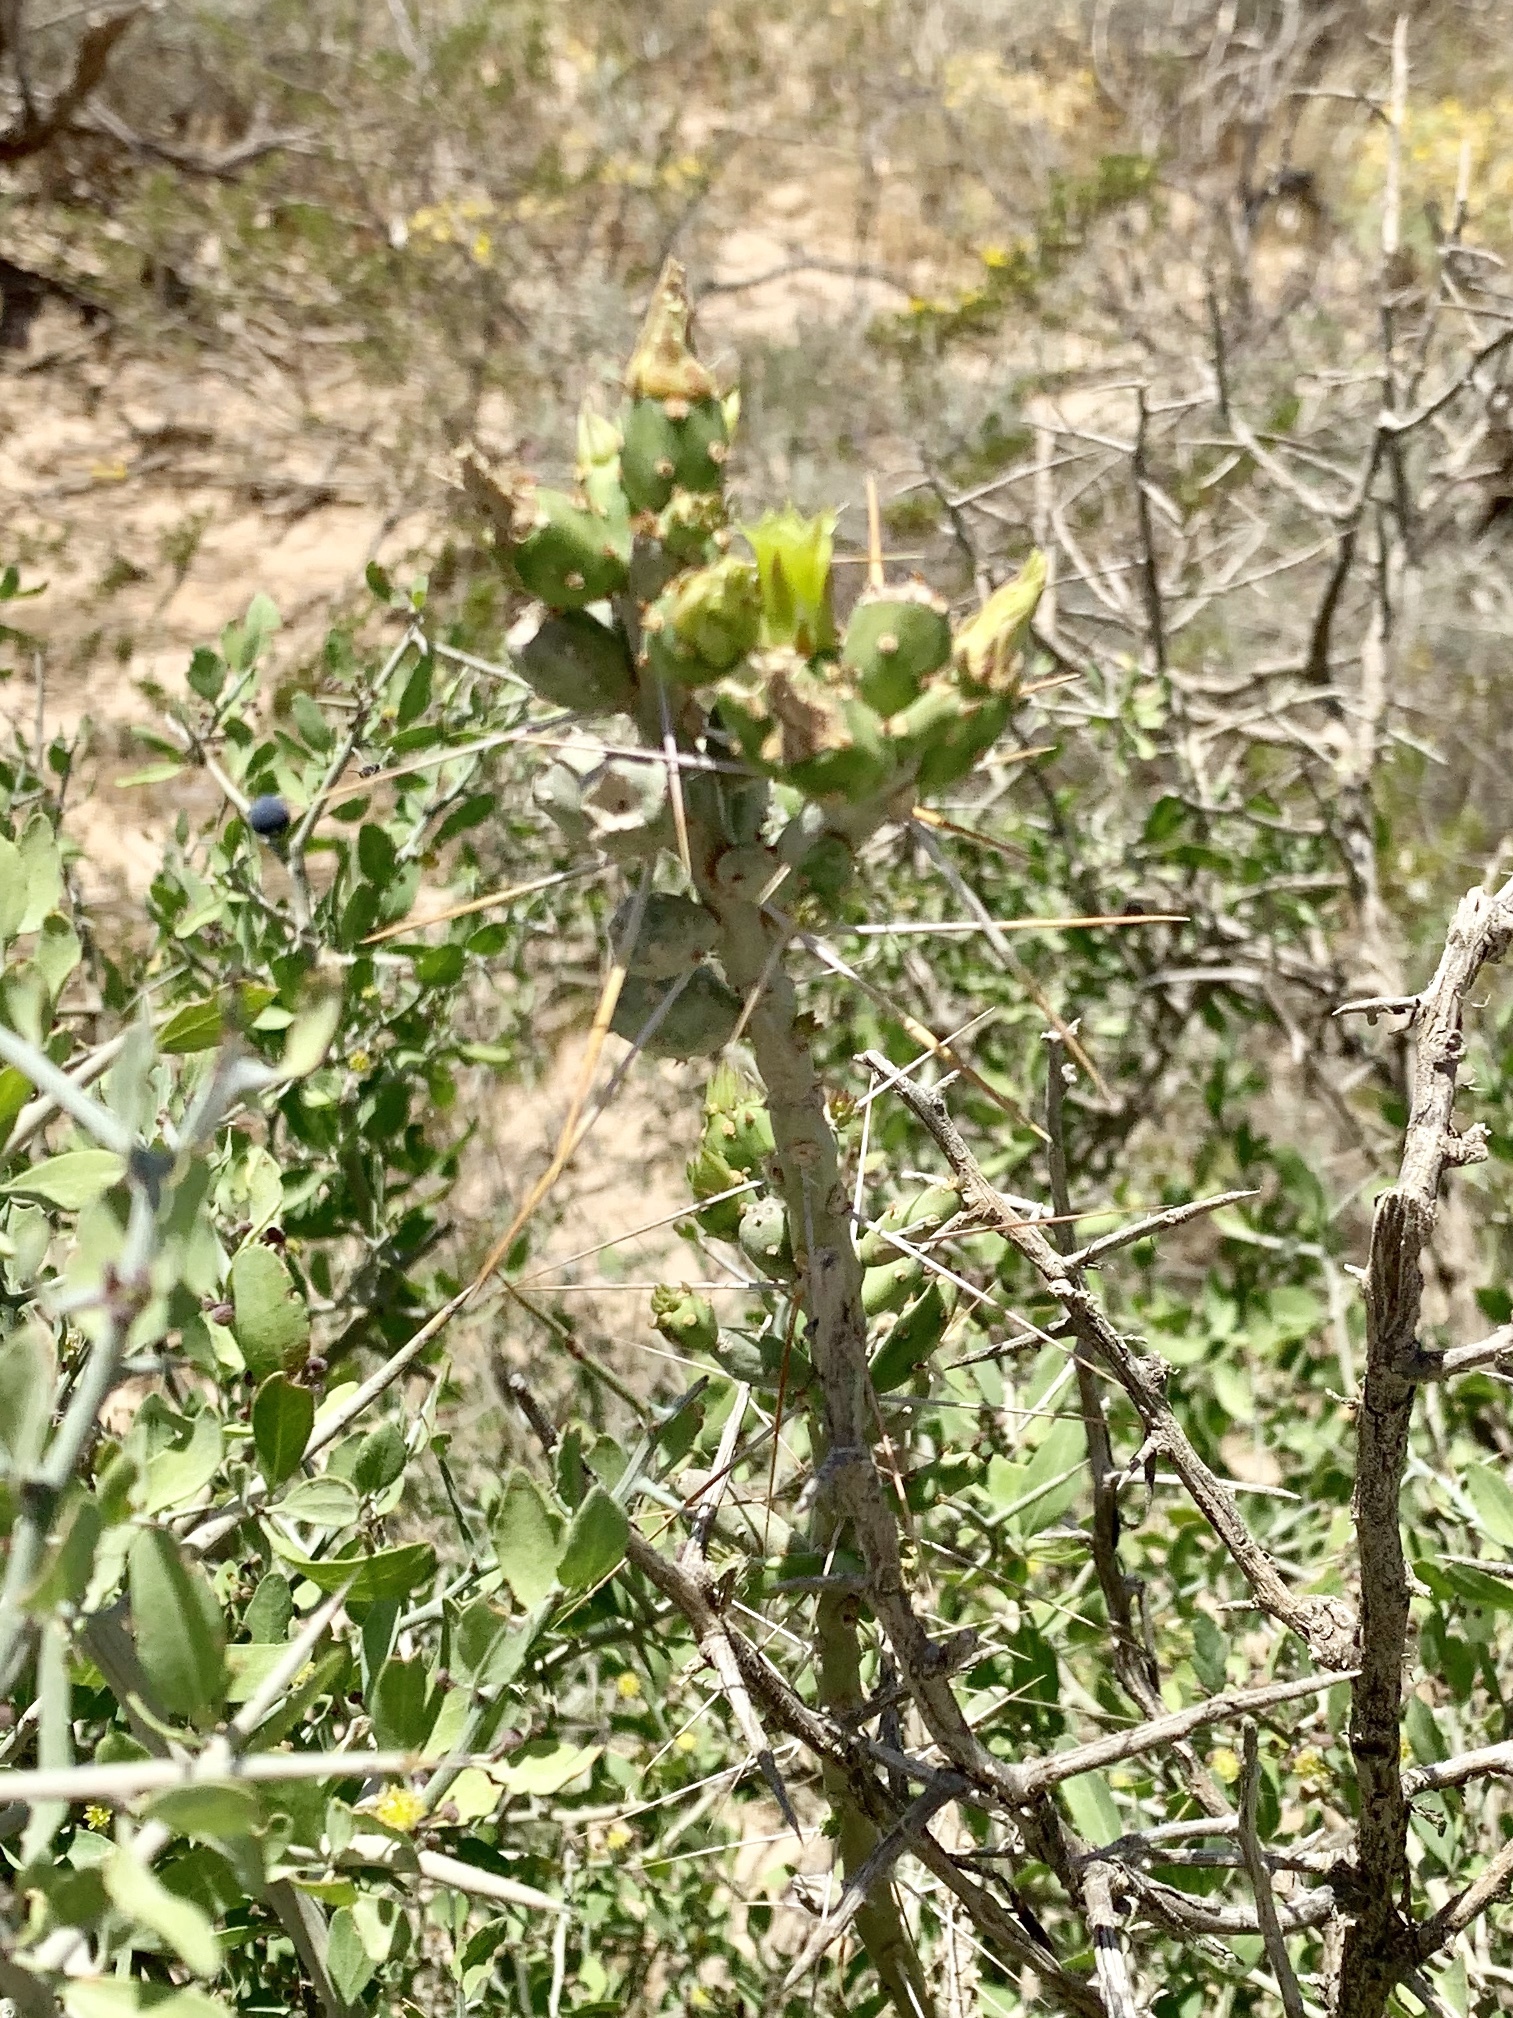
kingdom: Plantae
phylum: Tracheophyta
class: Magnoliopsida
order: Caryophyllales
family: Cactaceae
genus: Cylindropuntia
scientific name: Cylindropuntia leptocaulis
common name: Christmas cactus
